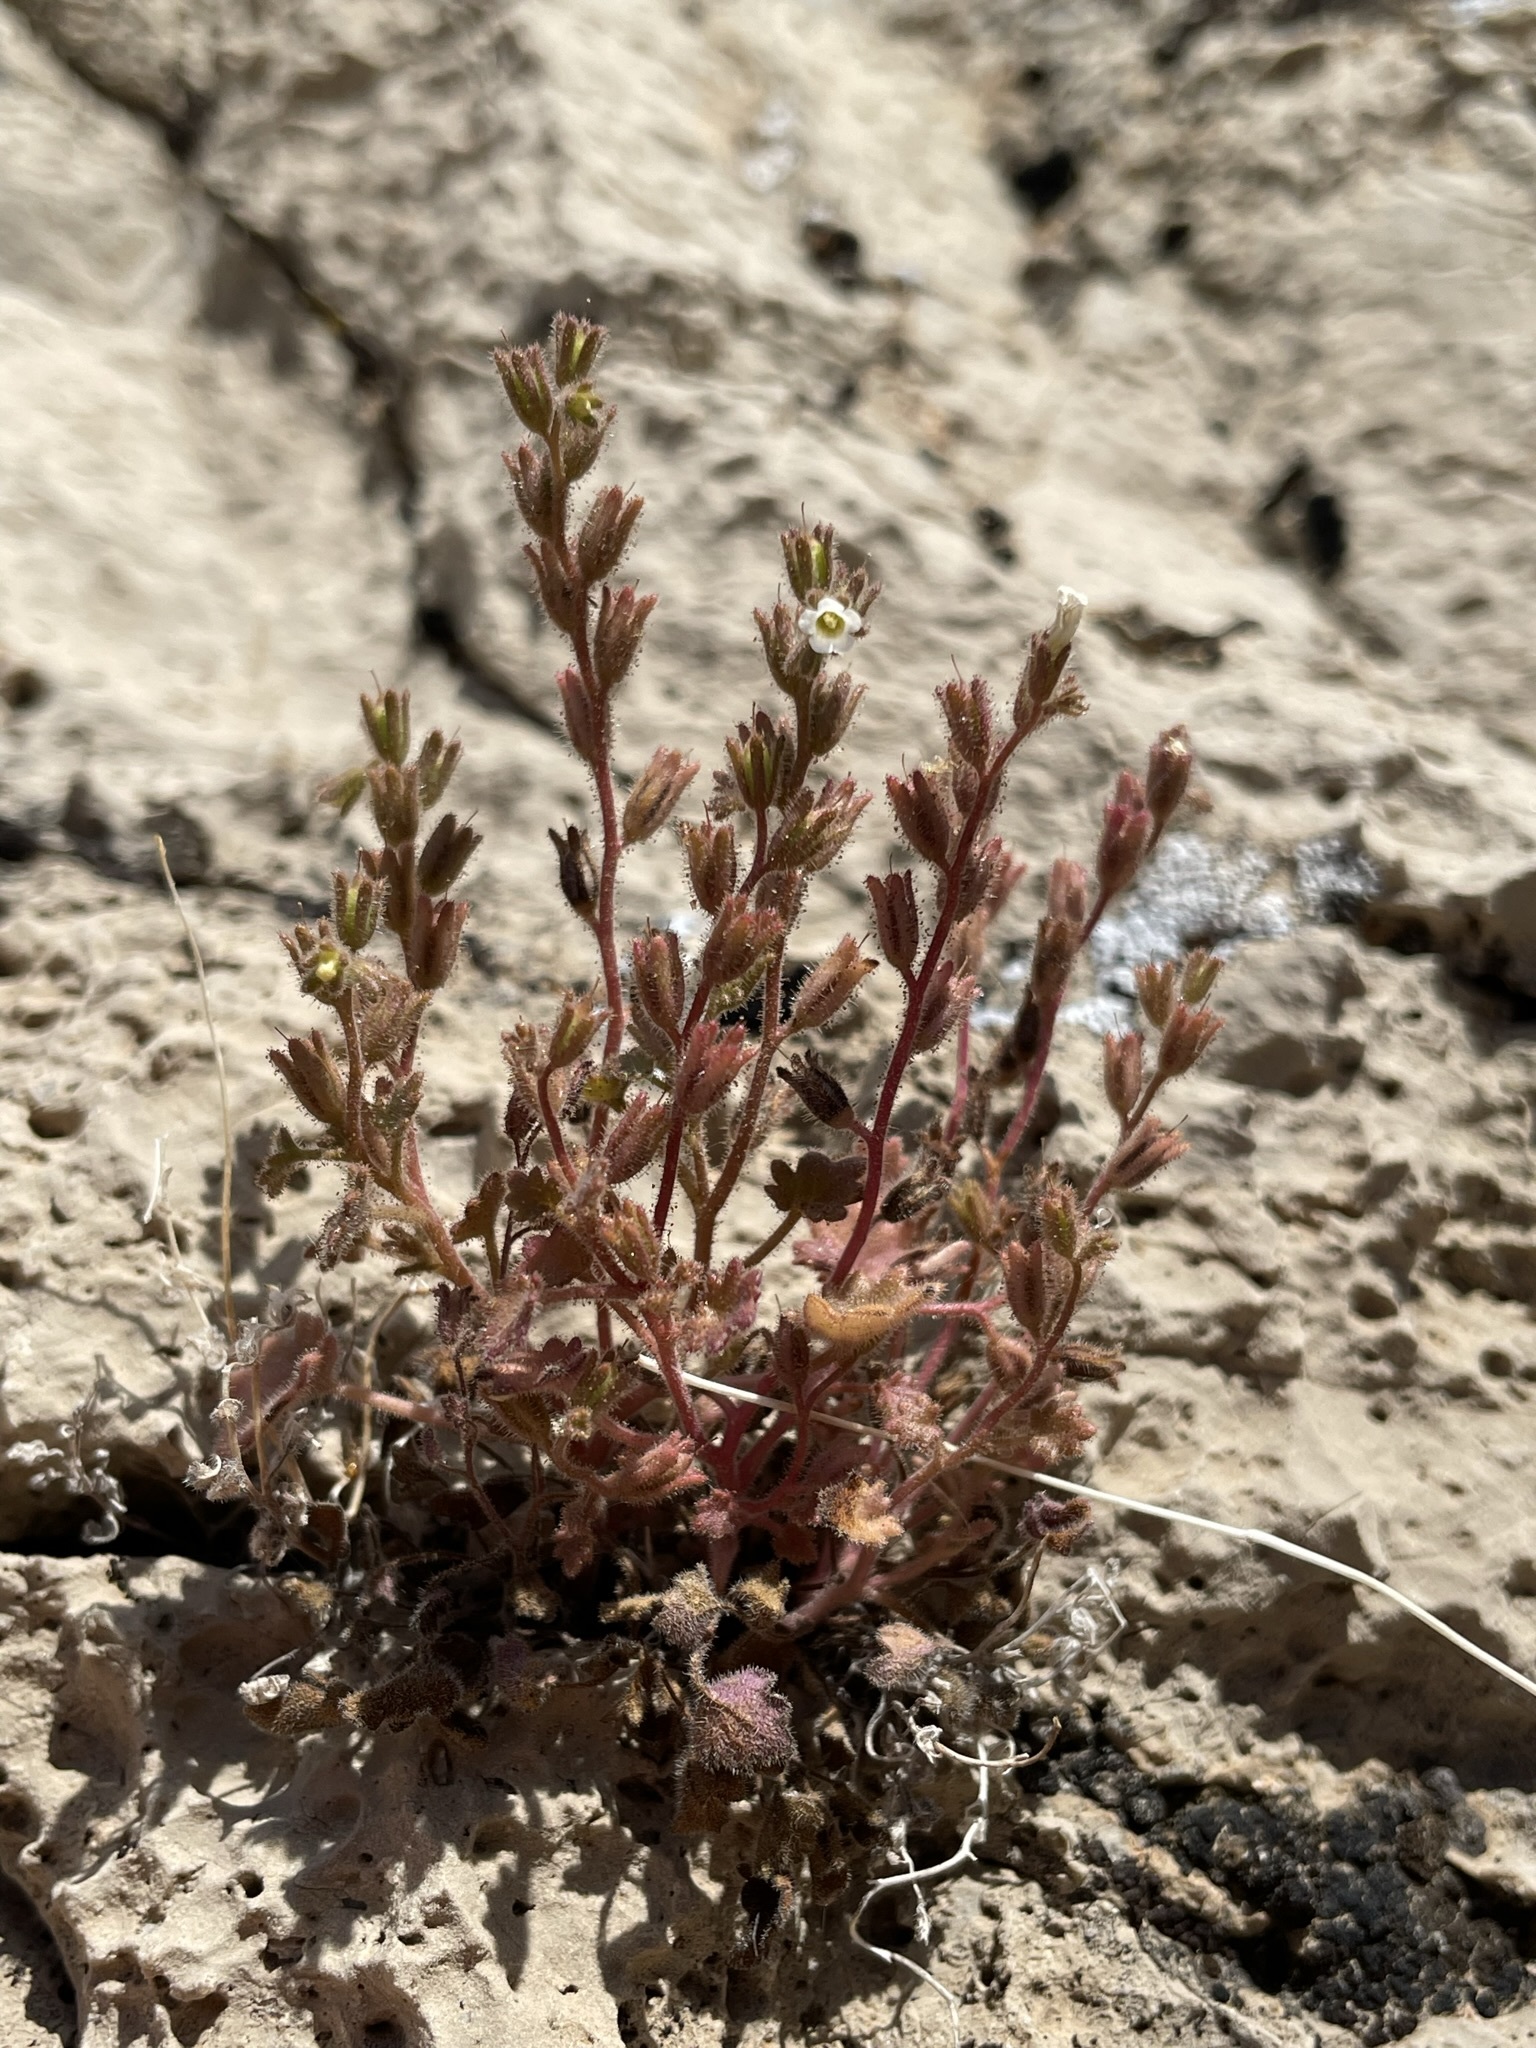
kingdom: Plantae
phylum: Tracheophyta
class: Magnoliopsida
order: Boraginales
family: Hydrophyllaceae
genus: Phacelia
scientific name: Phacelia rotundifolia
